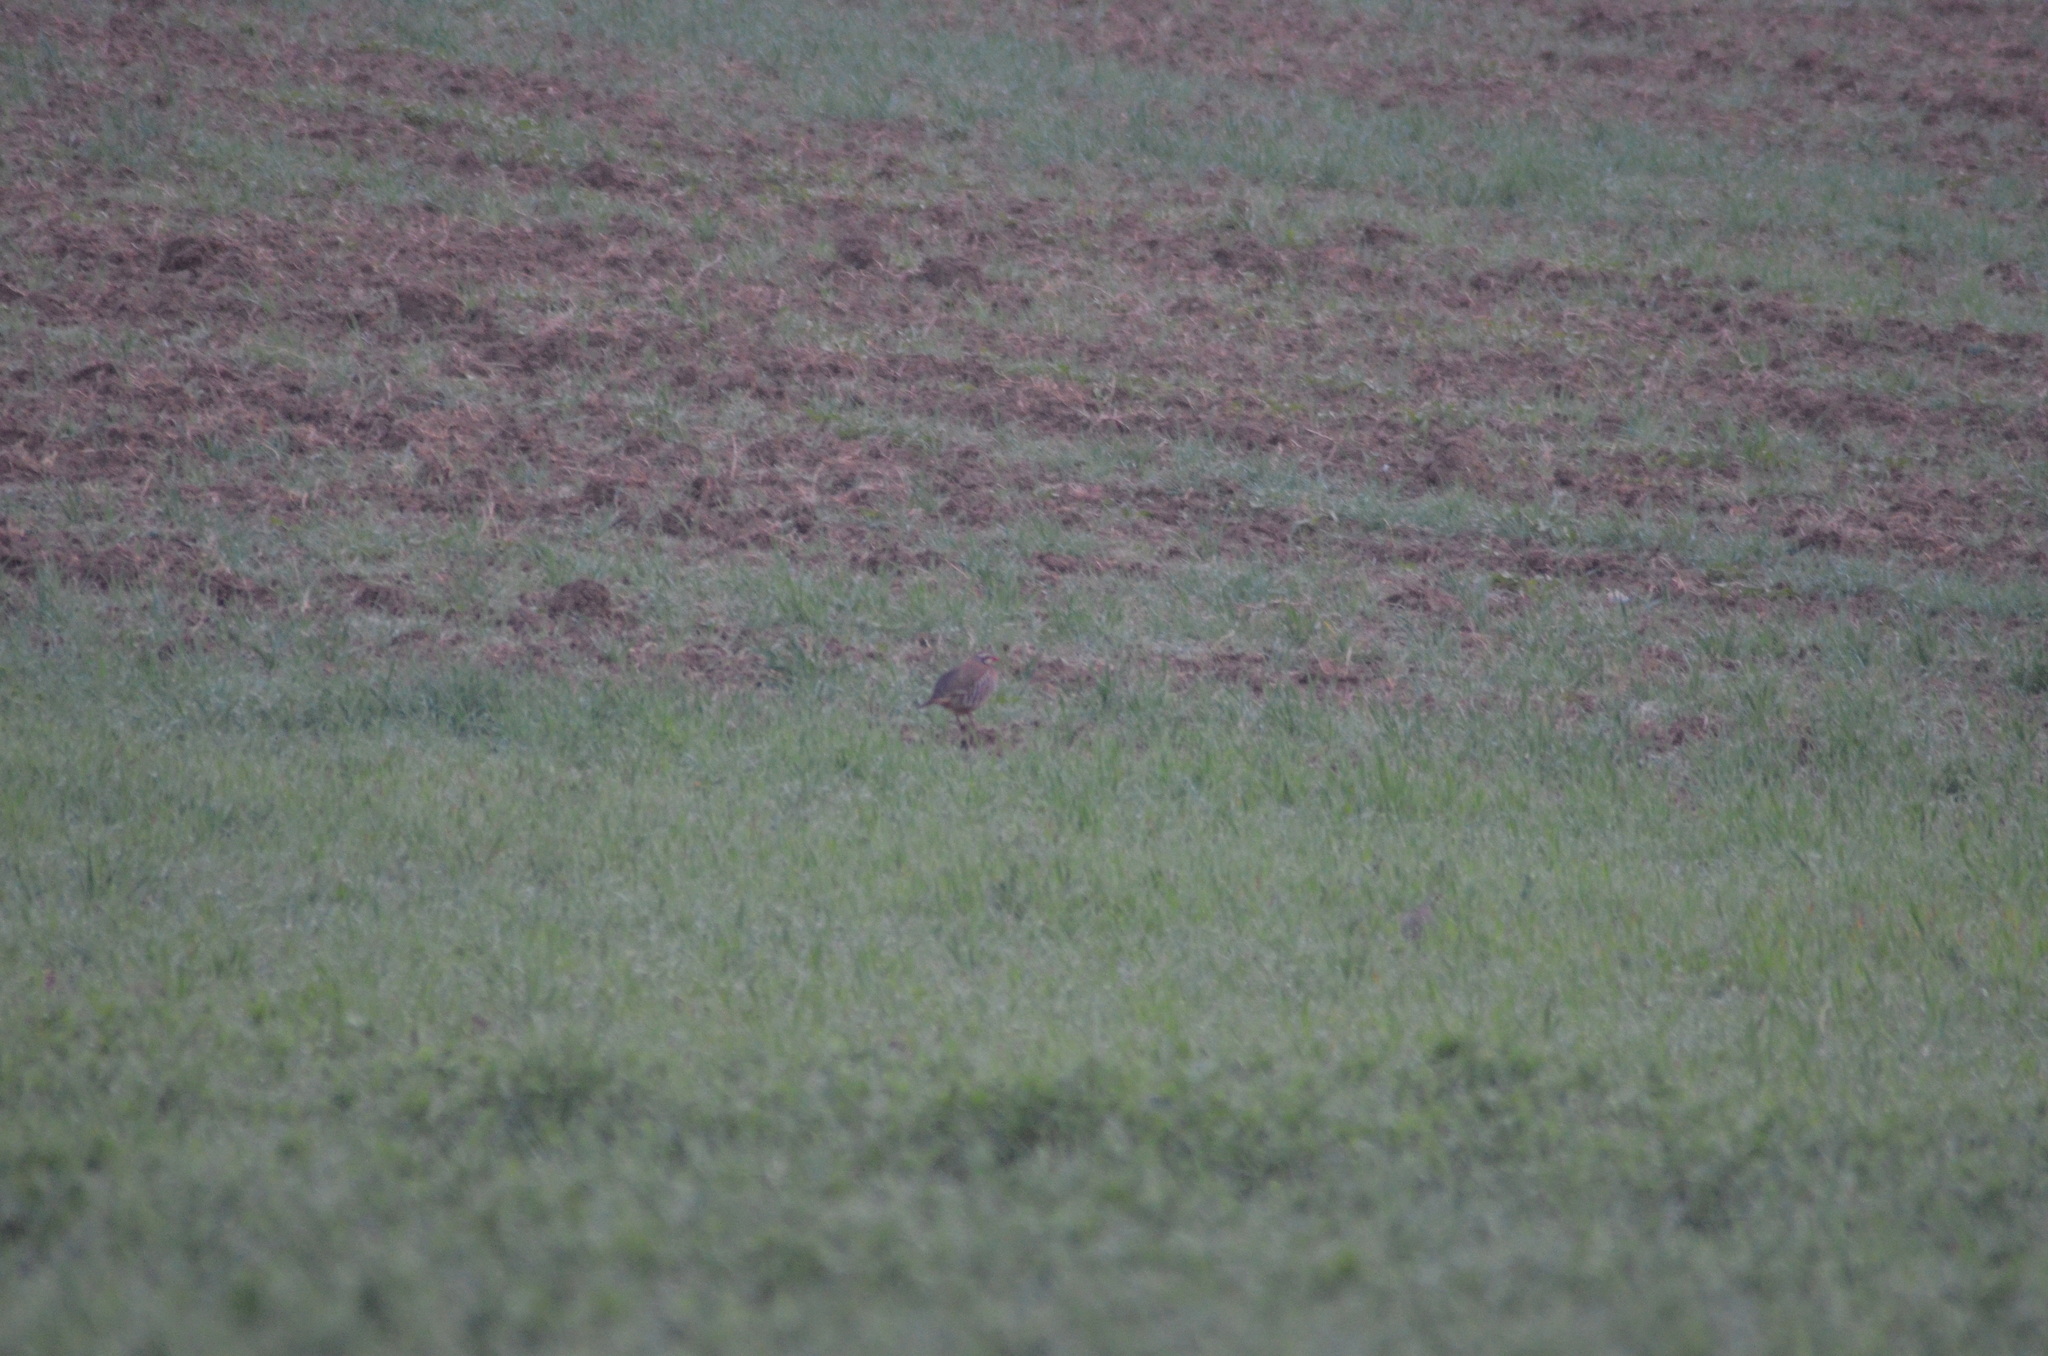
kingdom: Animalia
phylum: Chordata
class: Aves
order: Galliformes
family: Phasianidae
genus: Alectoris
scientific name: Alectoris rufa
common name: Red-legged partridge
